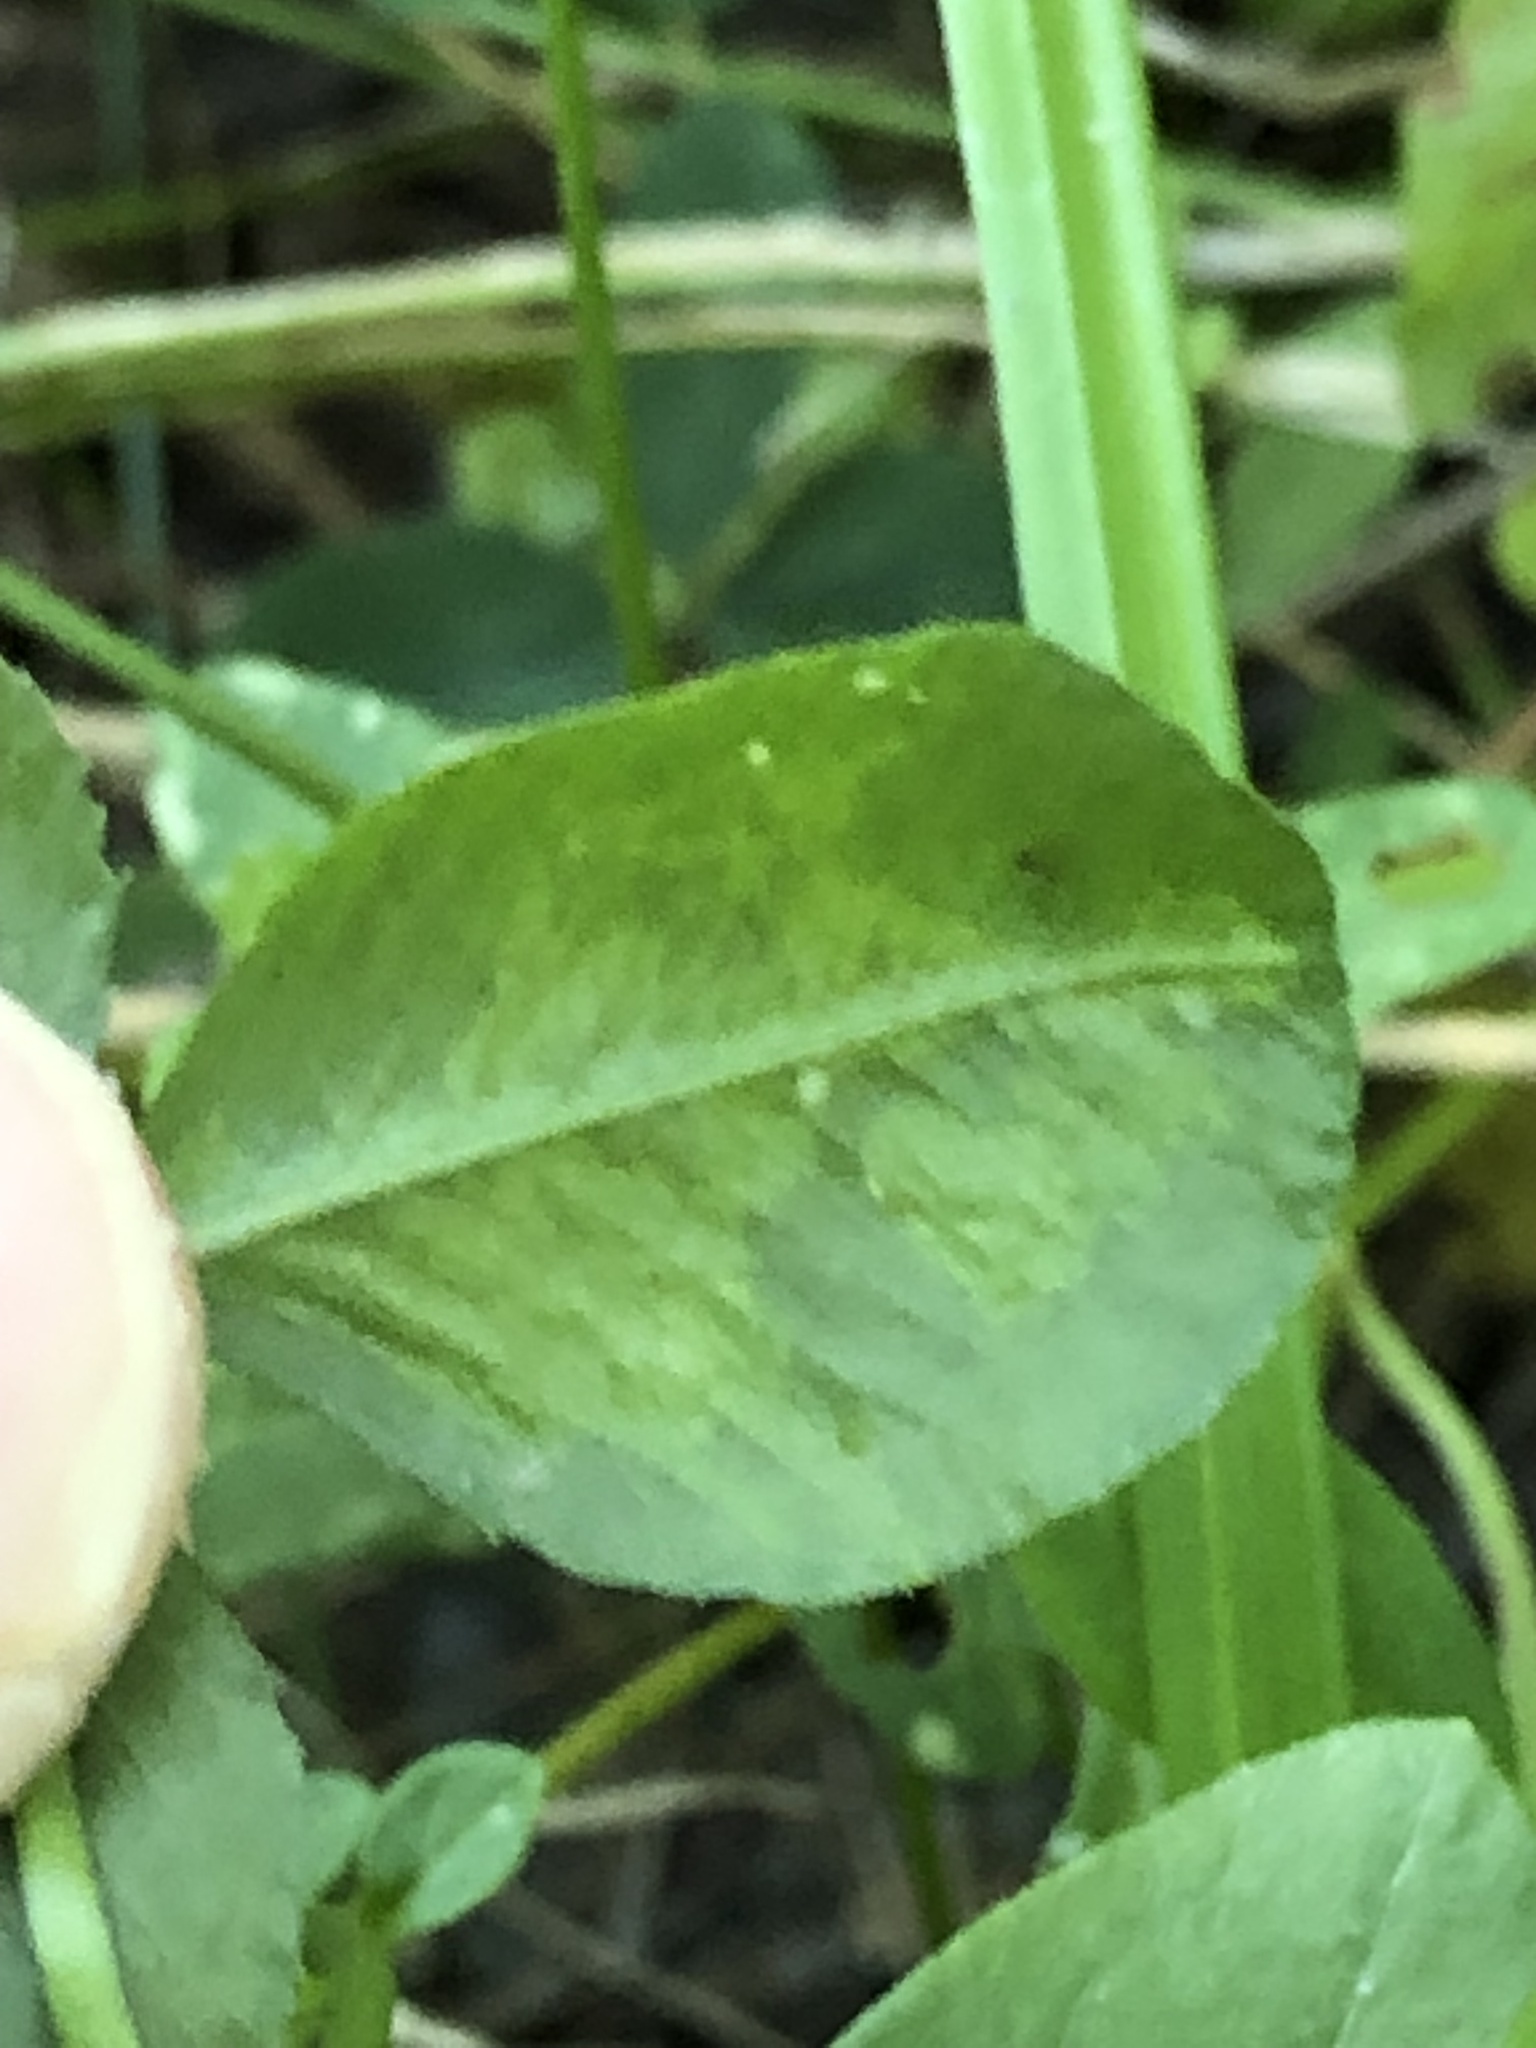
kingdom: Animalia
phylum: Arthropoda
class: Insecta
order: Diptera
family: Agromyzidae
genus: Liriomyza
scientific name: Liriomyza fricki
